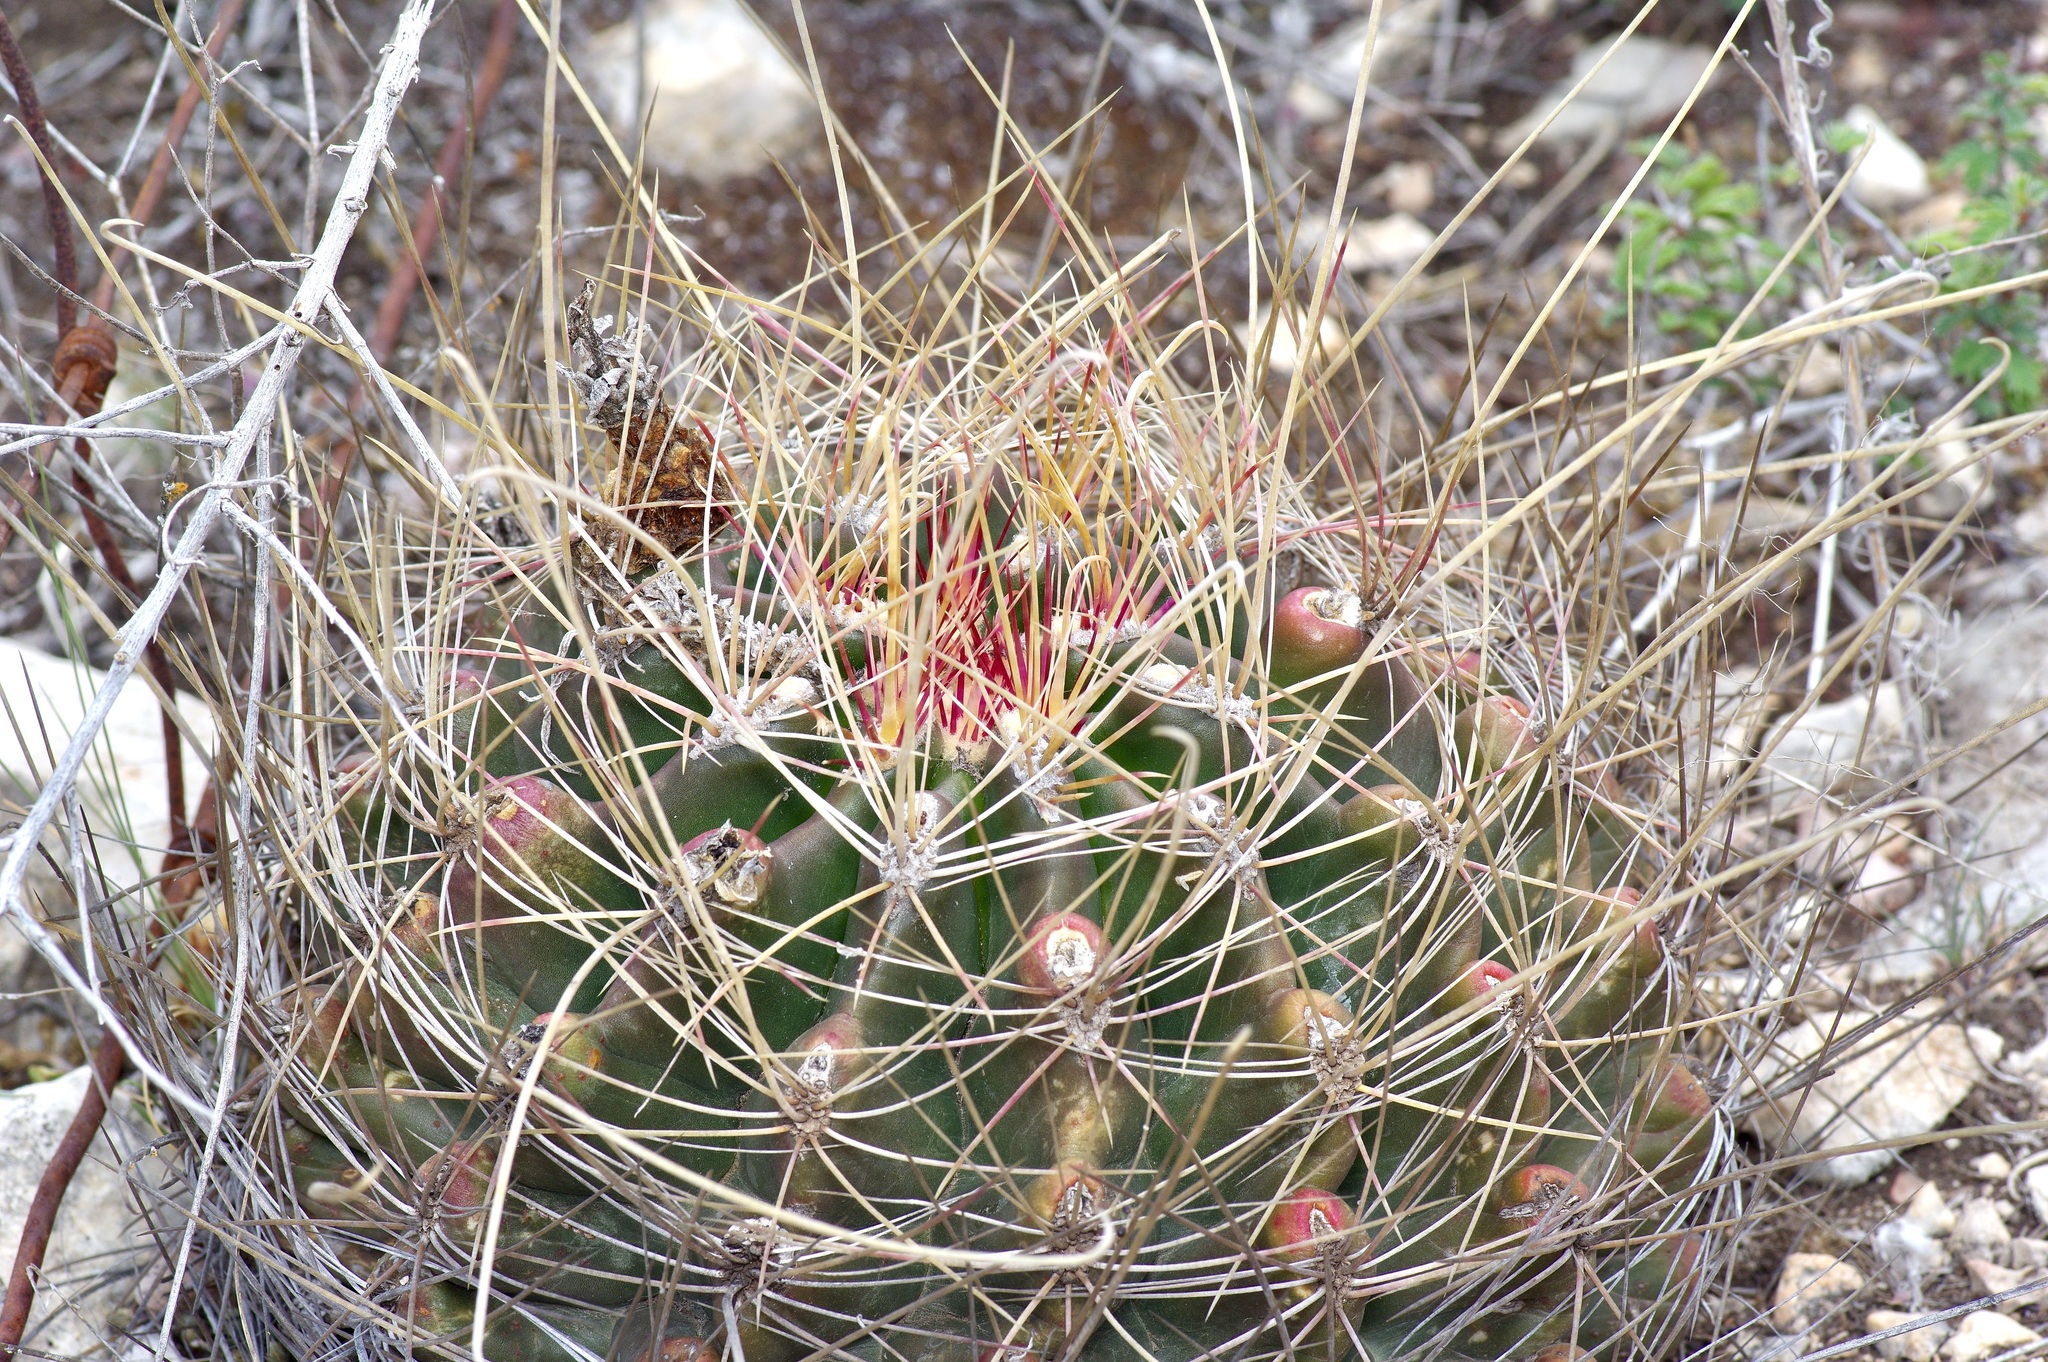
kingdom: Plantae
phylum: Tracheophyta
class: Magnoliopsida
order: Caryophyllales
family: Cactaceae
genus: Bisnaga
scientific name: Bisnaga hamatacantha
